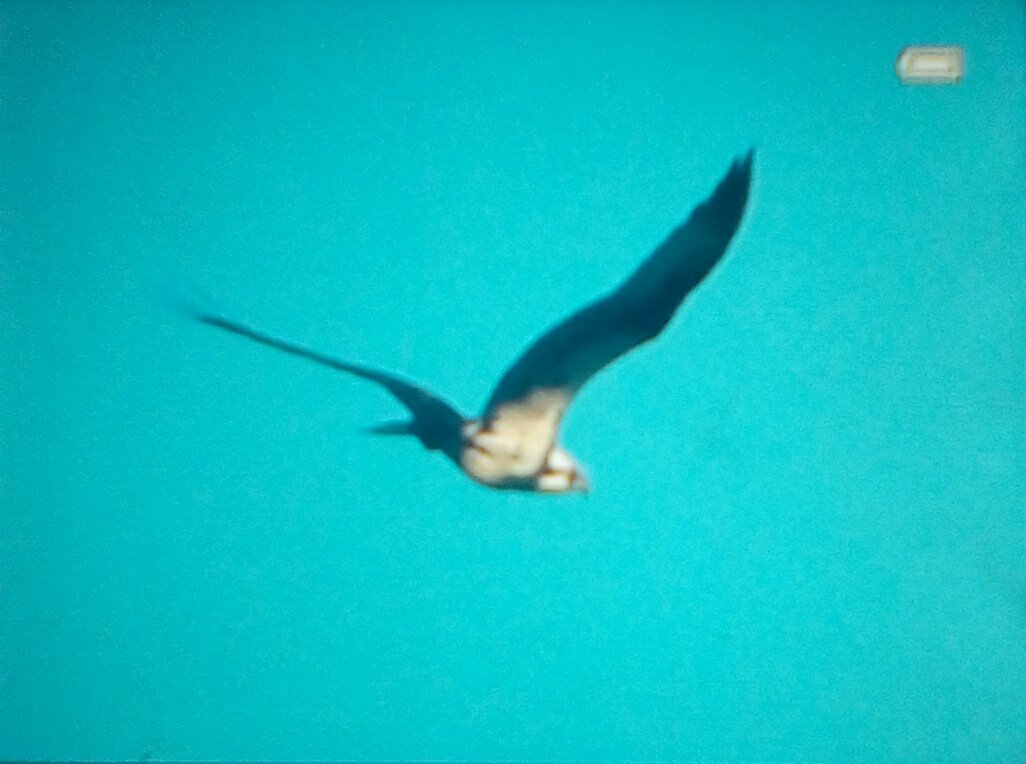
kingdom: Animalia
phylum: Chordata
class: Aves
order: Accipitriformes
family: Pandionidae
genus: Pandion
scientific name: Pandion haliaetus
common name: Osprey
